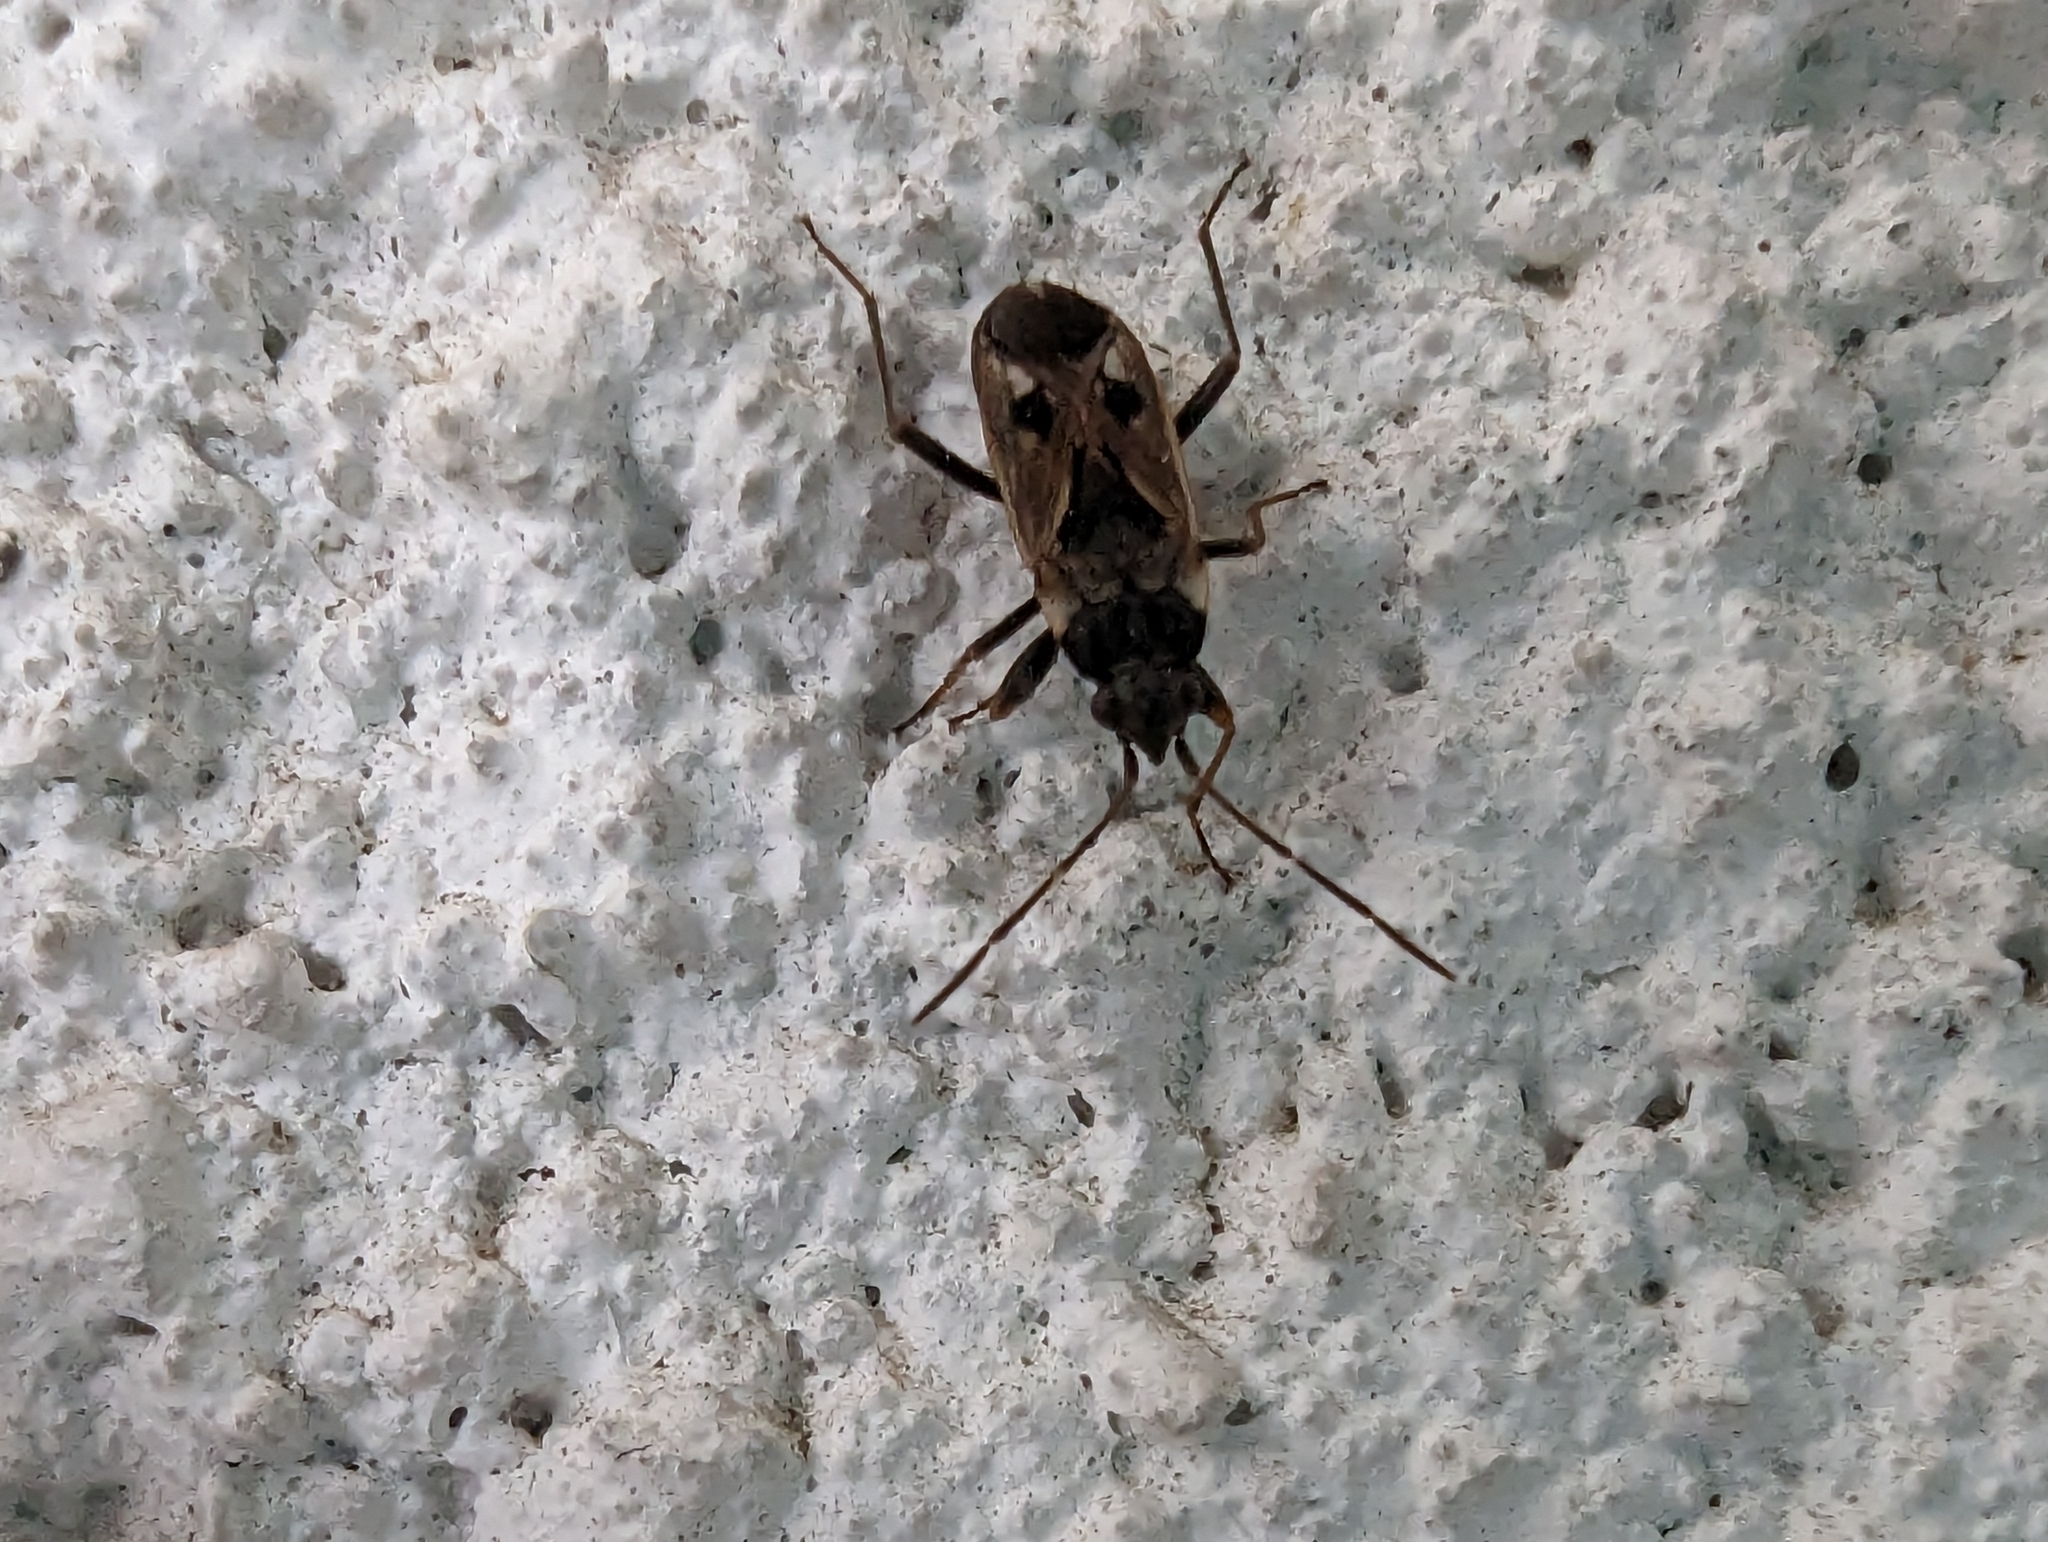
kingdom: Animalia
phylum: Arthropoda
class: Insecta
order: Hemiptera
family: Rhyparochromidae
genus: Rhyparochromus
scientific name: Rhyparochromus vulgaris
